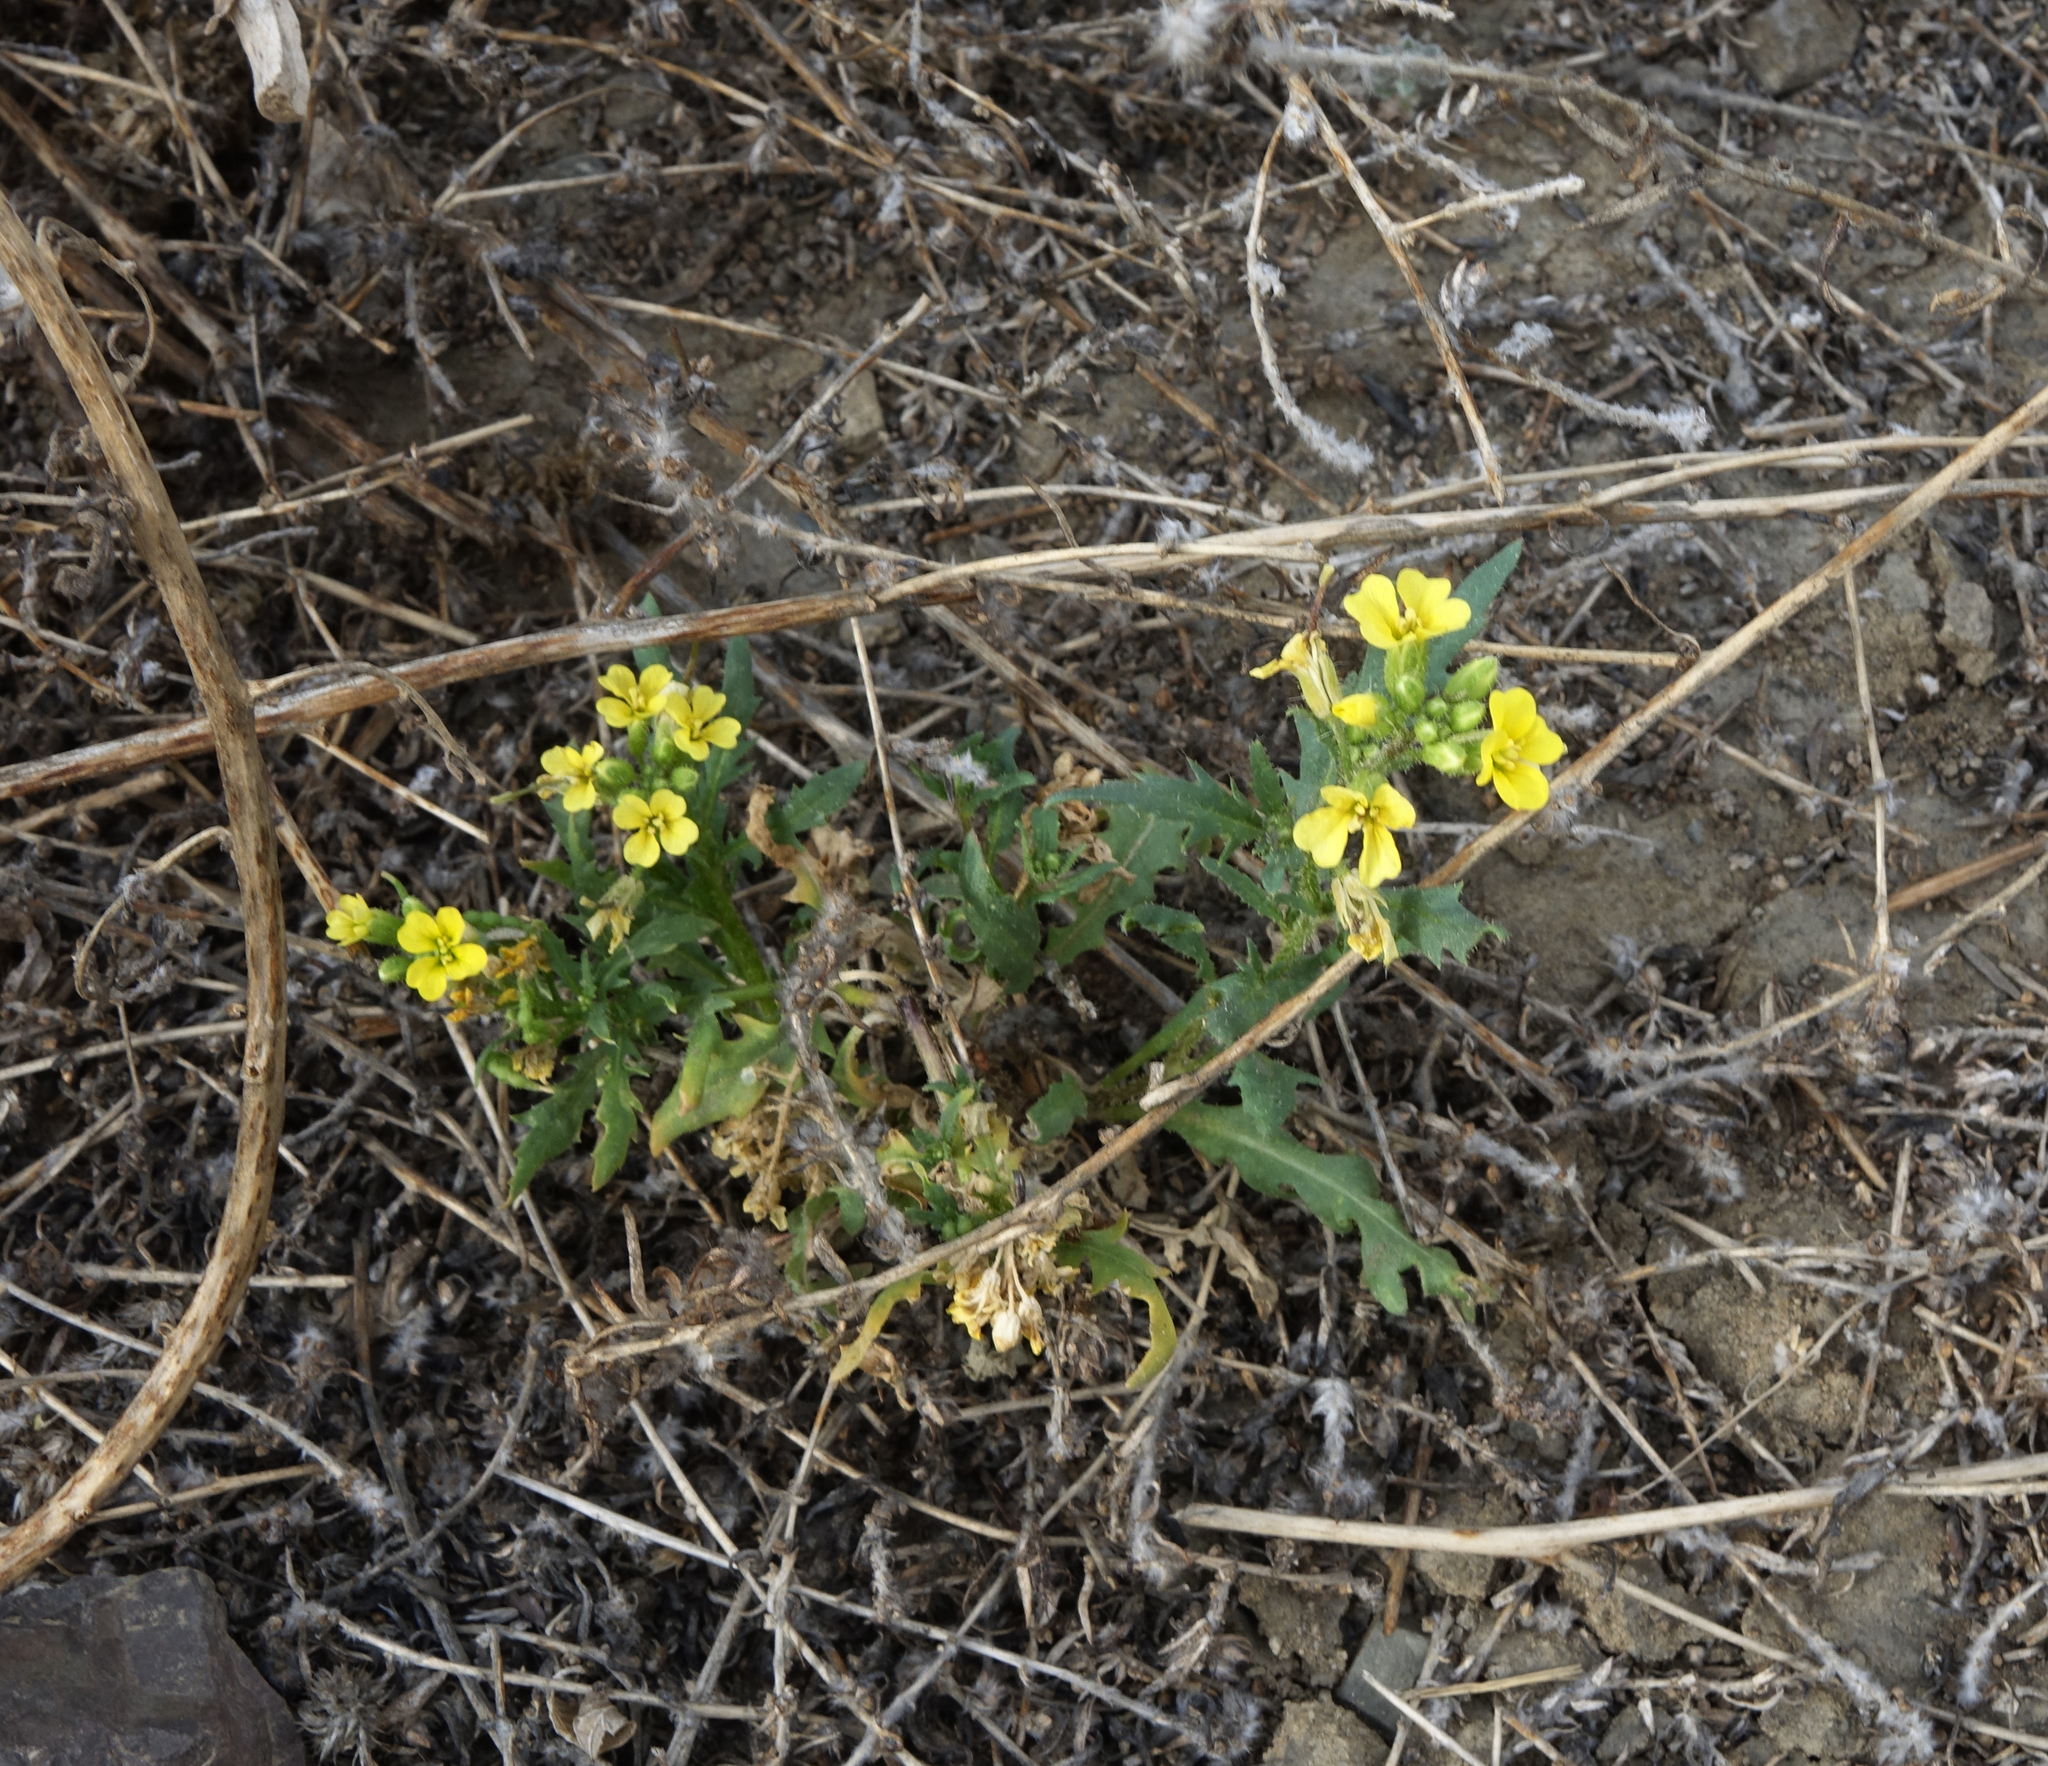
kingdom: Plantae
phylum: Tracheophyta
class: Magnoliopsida
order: Brassicales
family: Brassicaceae
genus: Chorispora
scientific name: Chorispora sibirica
